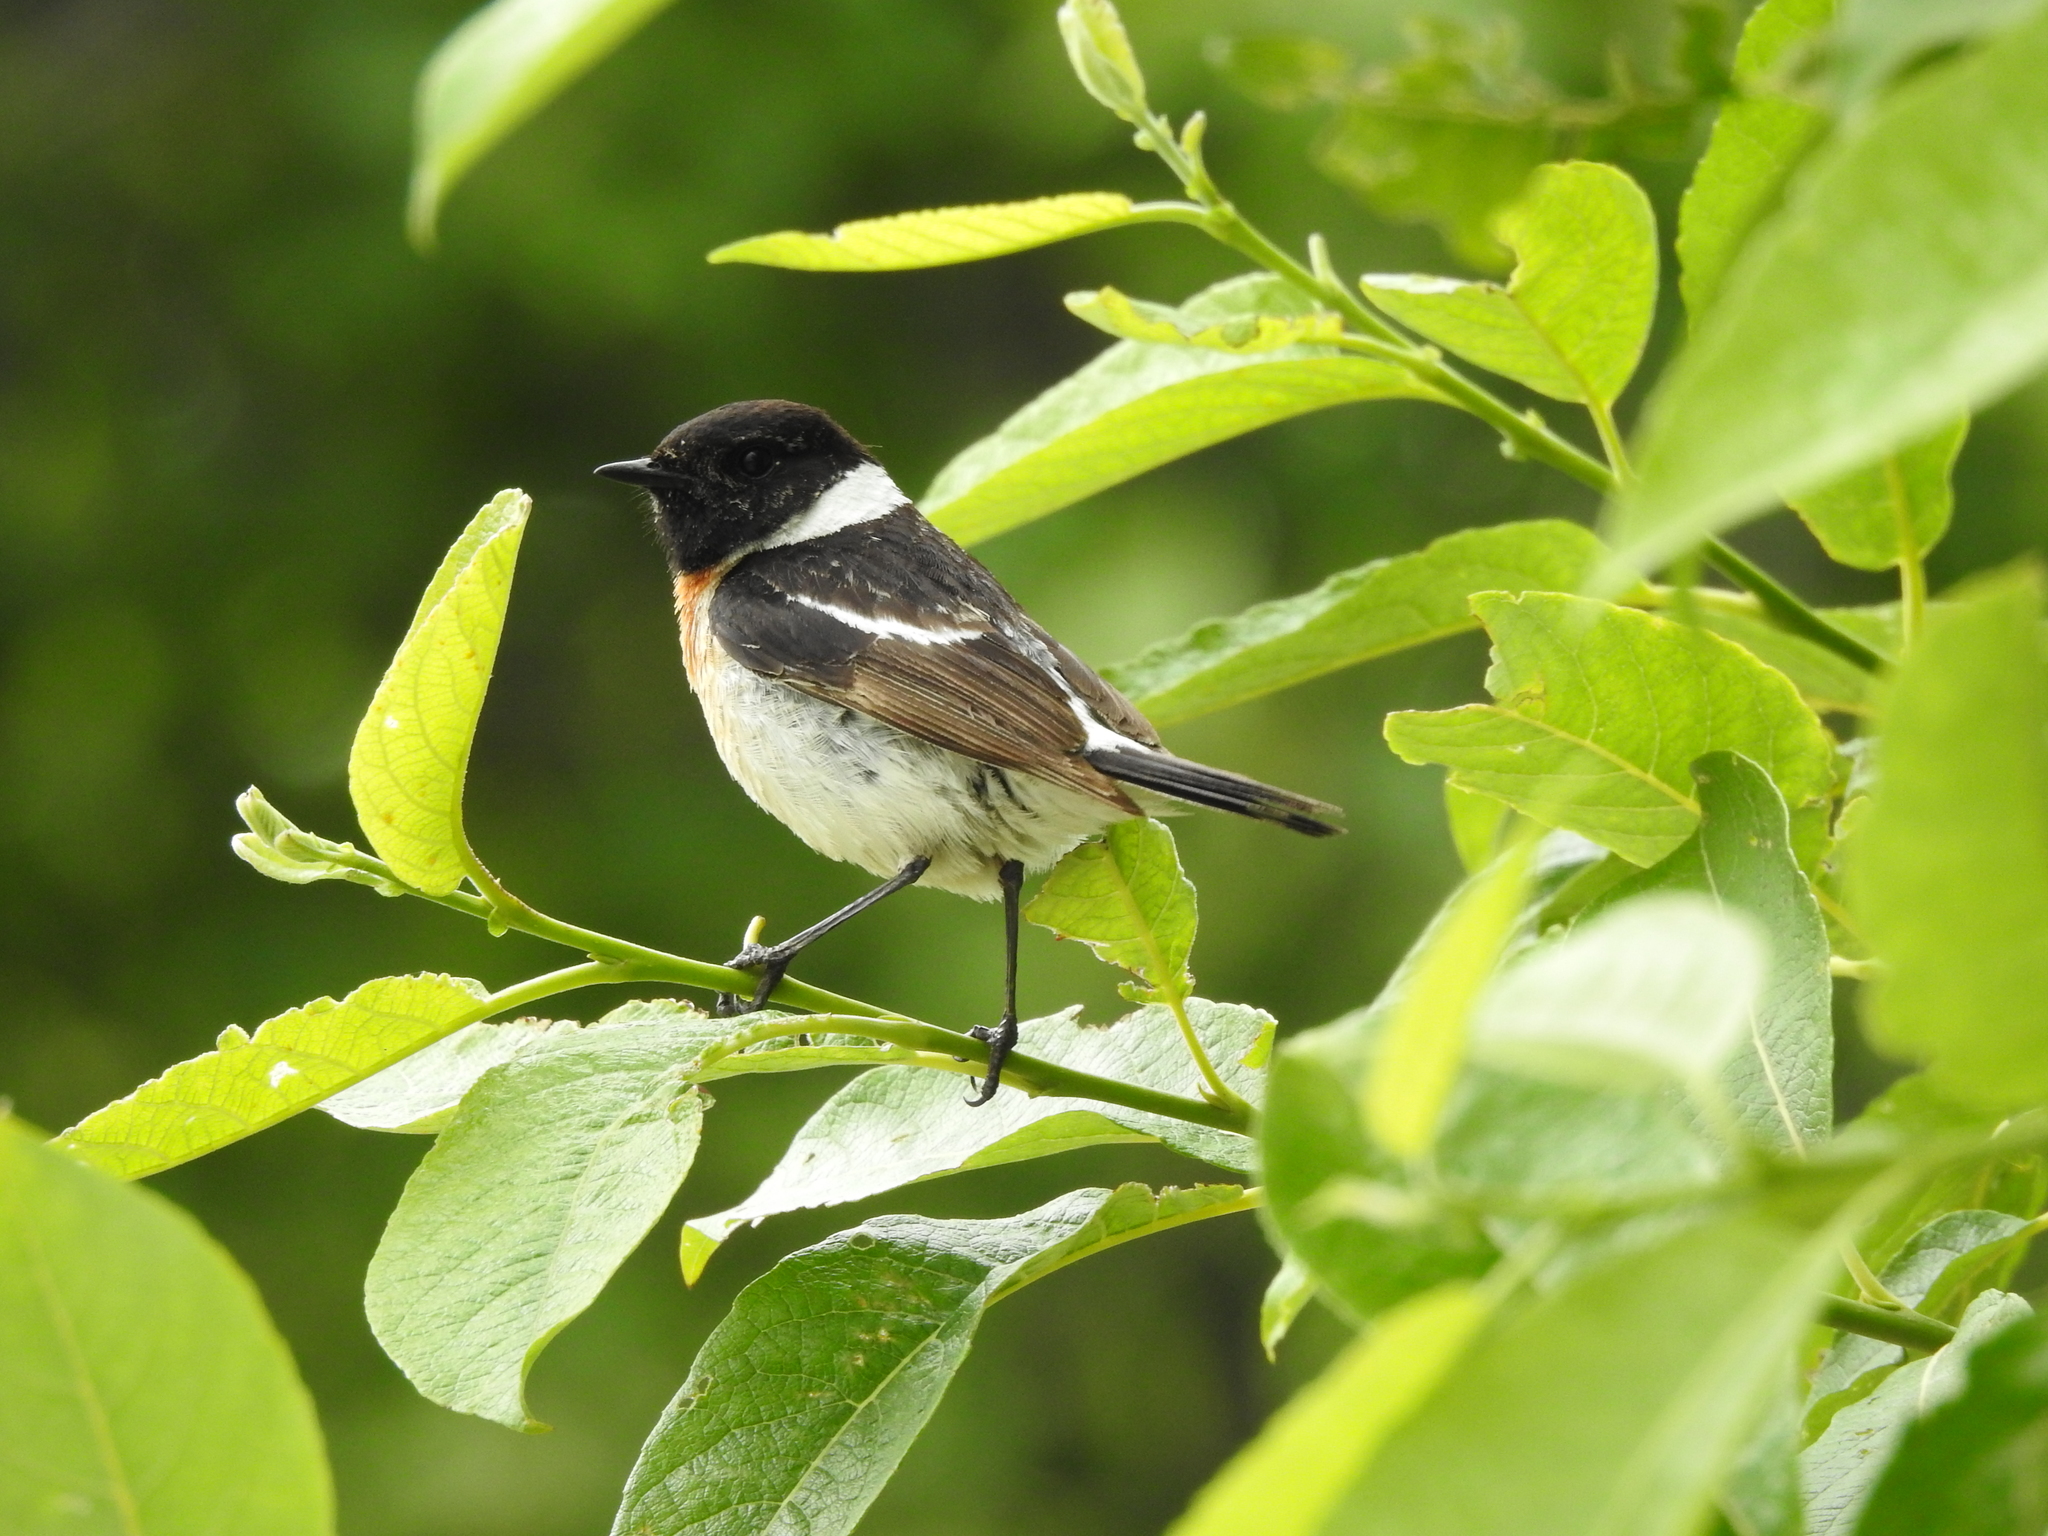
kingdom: Animalia
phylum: Chordata
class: Aves
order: Passeriformes
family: Muscicapidae
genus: Saxicola
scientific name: Saxicola maurus
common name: Siberian stonechat
